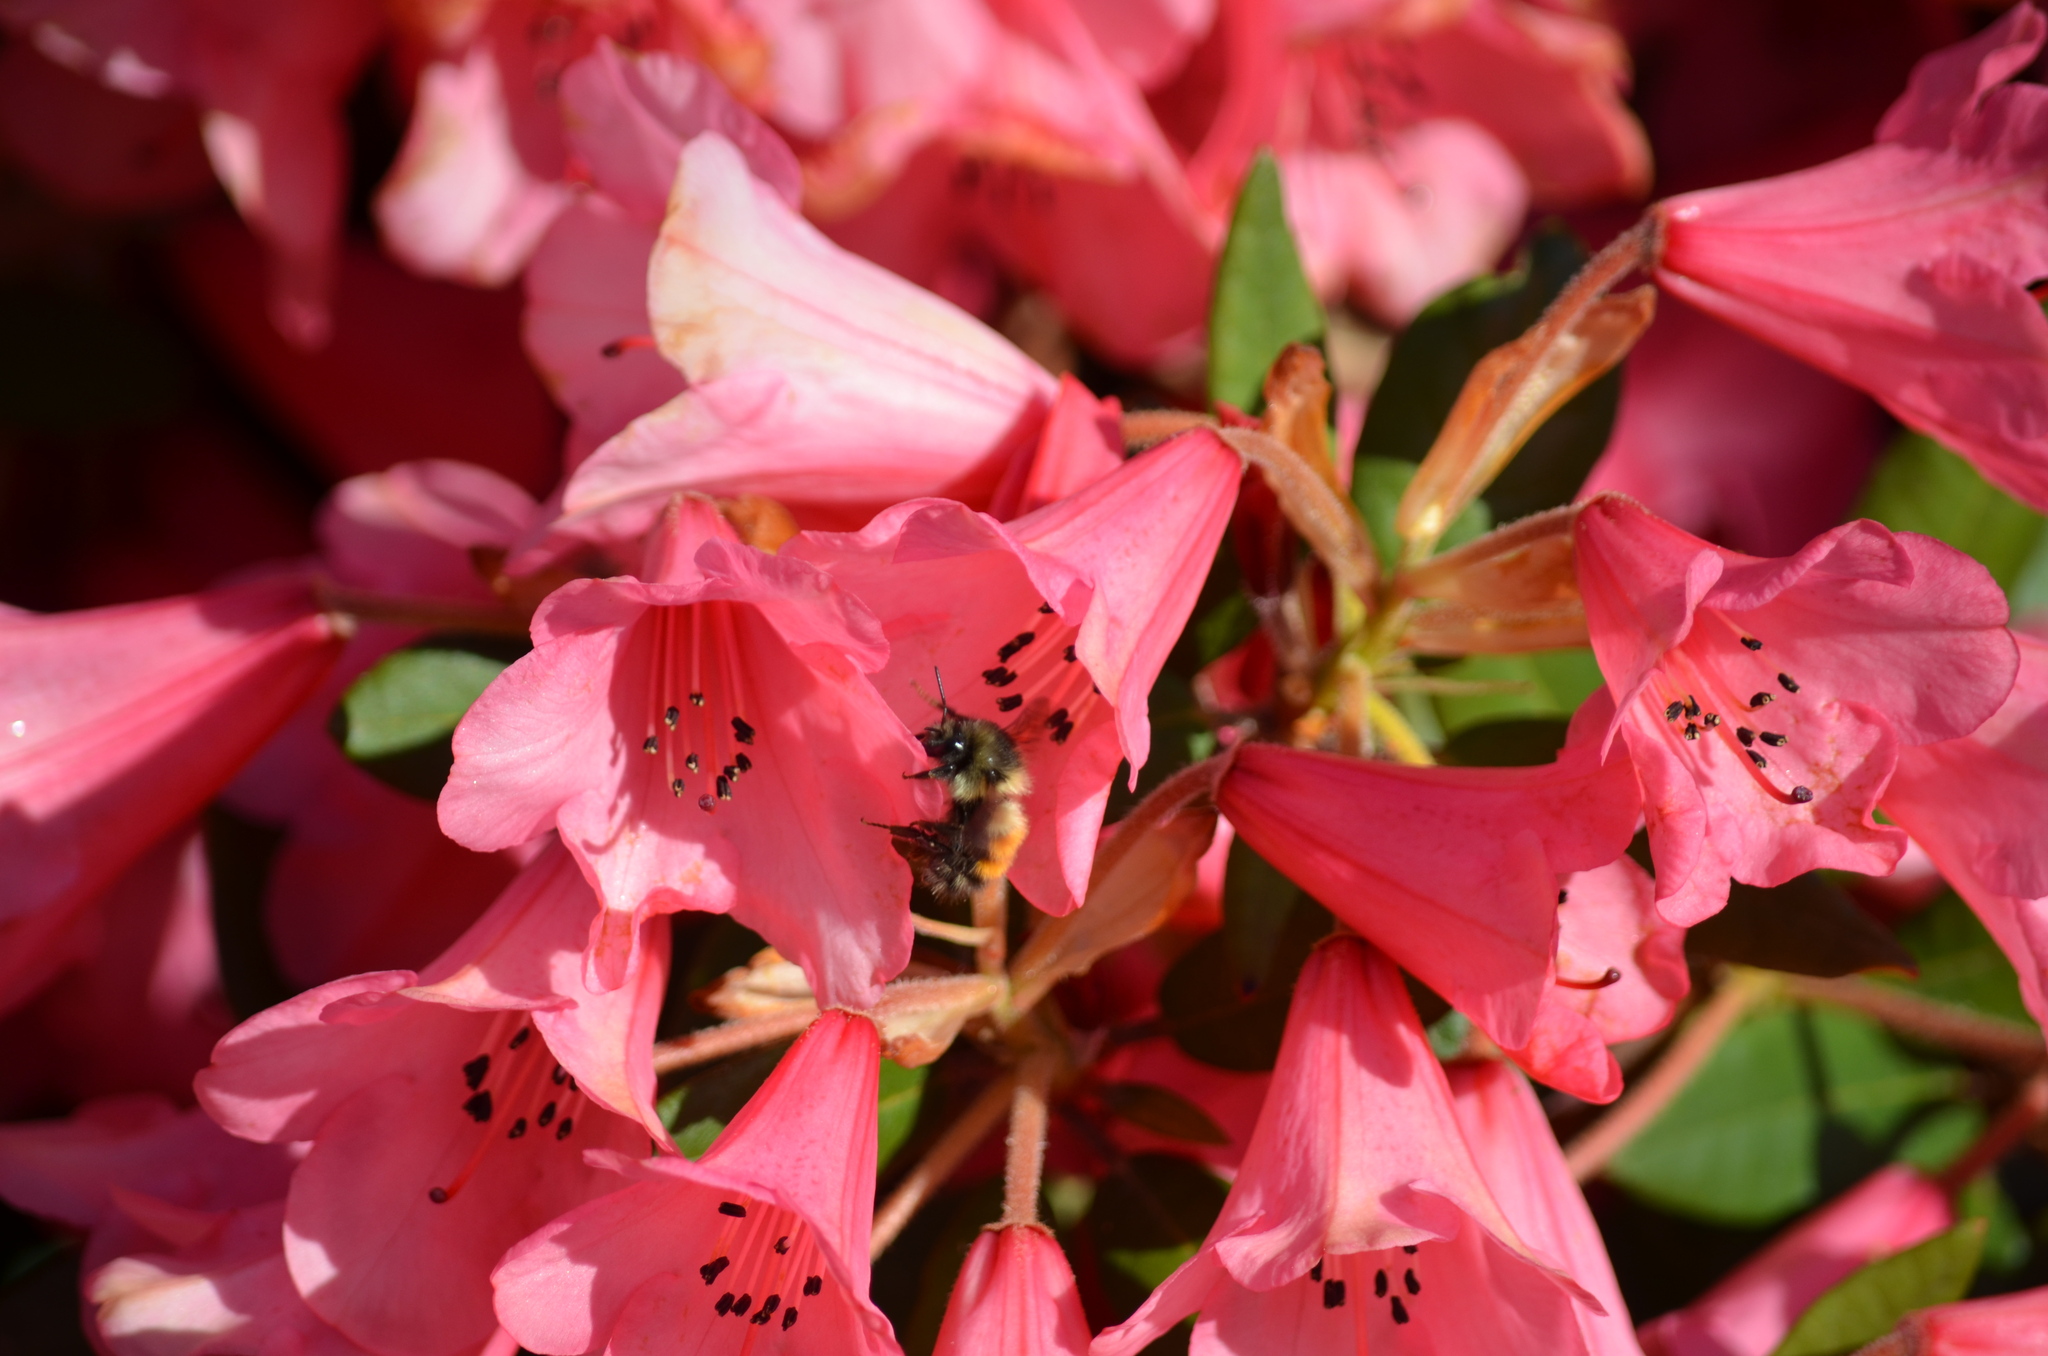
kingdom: Animalia
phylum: Arthropoda
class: Insecta
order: Hymenoptera
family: Apidae
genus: Bombus
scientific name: Bombus melanopygus
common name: Black tail bumble bee
